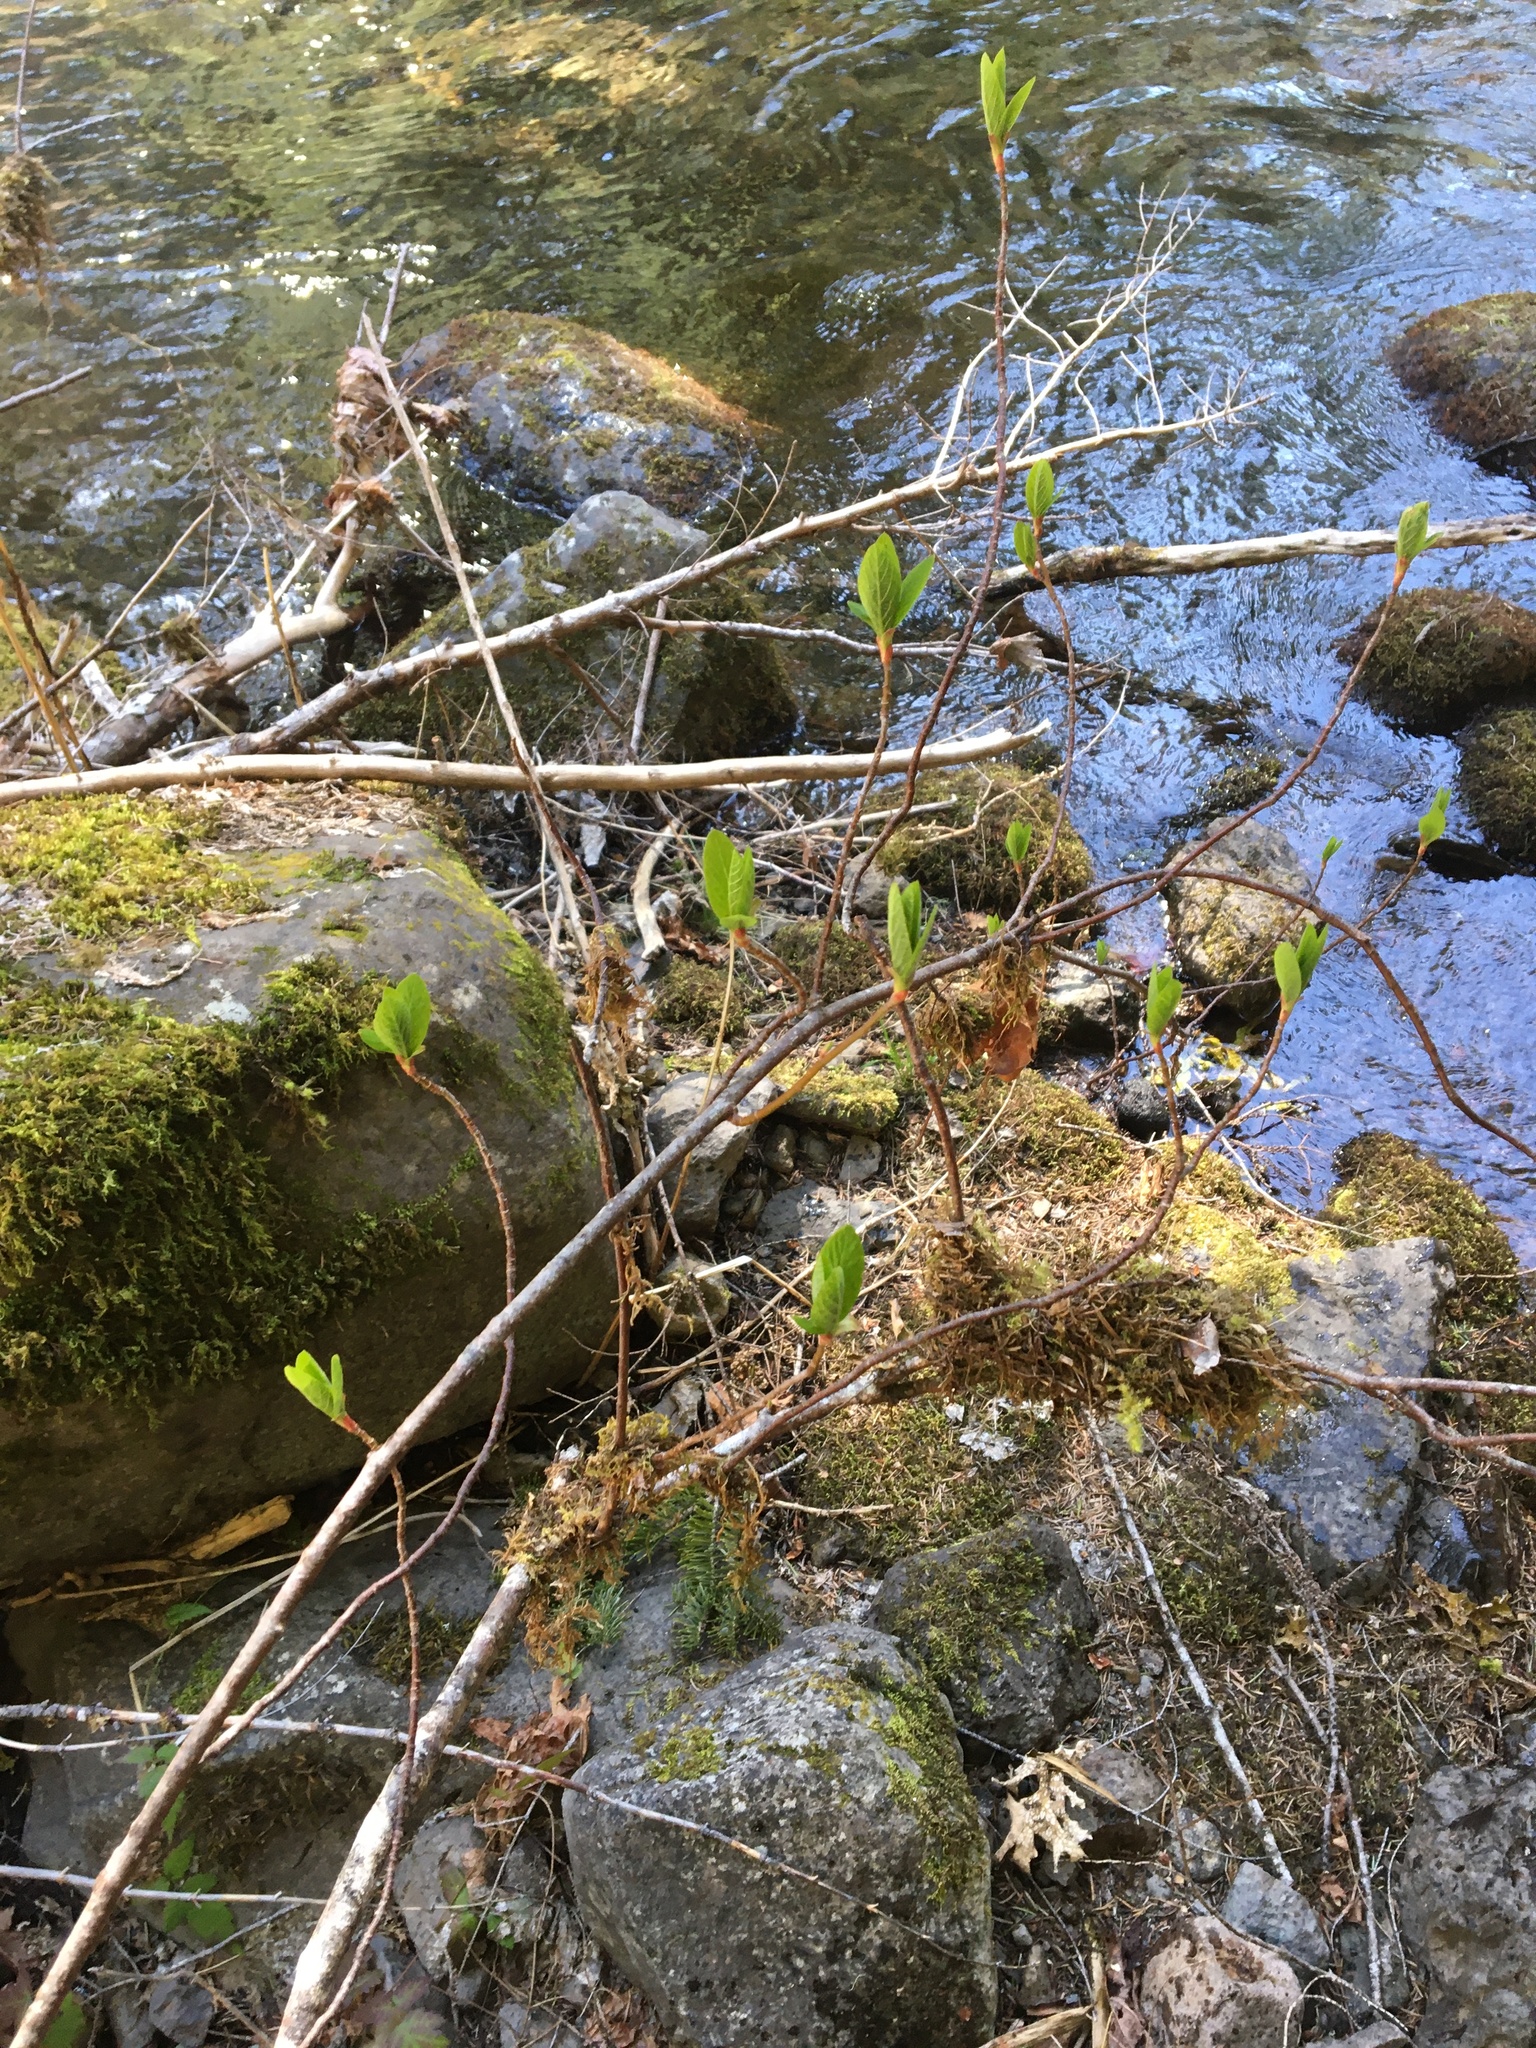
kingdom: Plantae
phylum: Tracheophyta
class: Magnoliopsida
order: Rosales
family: Rosaceae
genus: Oemleria
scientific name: Oemleria cerasiformis
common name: Osoberry
